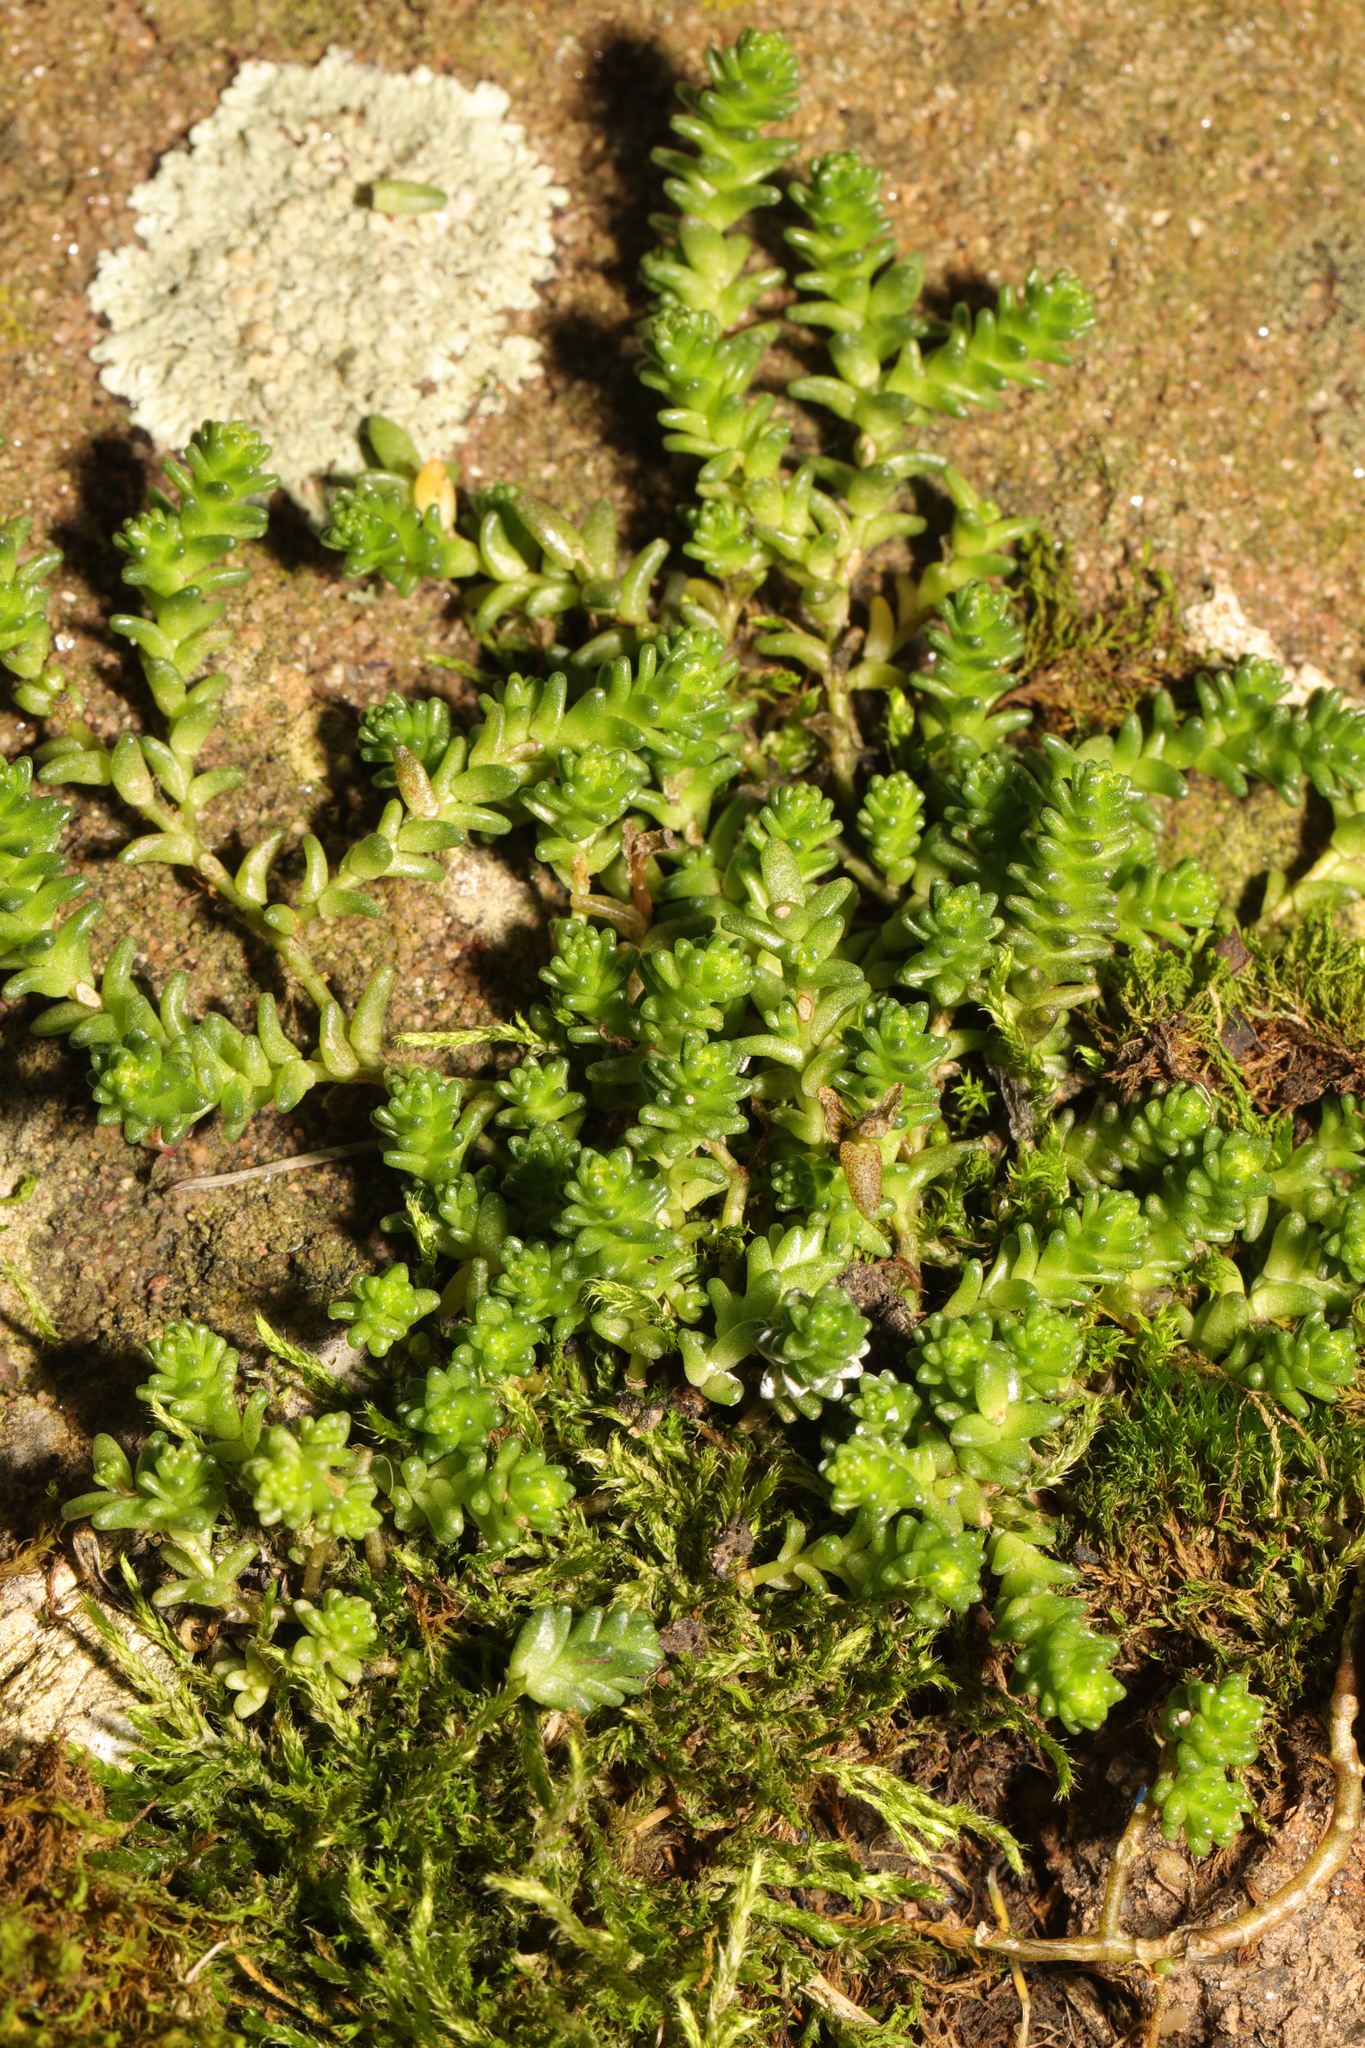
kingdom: Plantae
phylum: Tracheophyta
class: Magnoliopsida
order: Saxifragales
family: Crassulaceae
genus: Sedum
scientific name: Sedum acre
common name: Biting stonecrop
